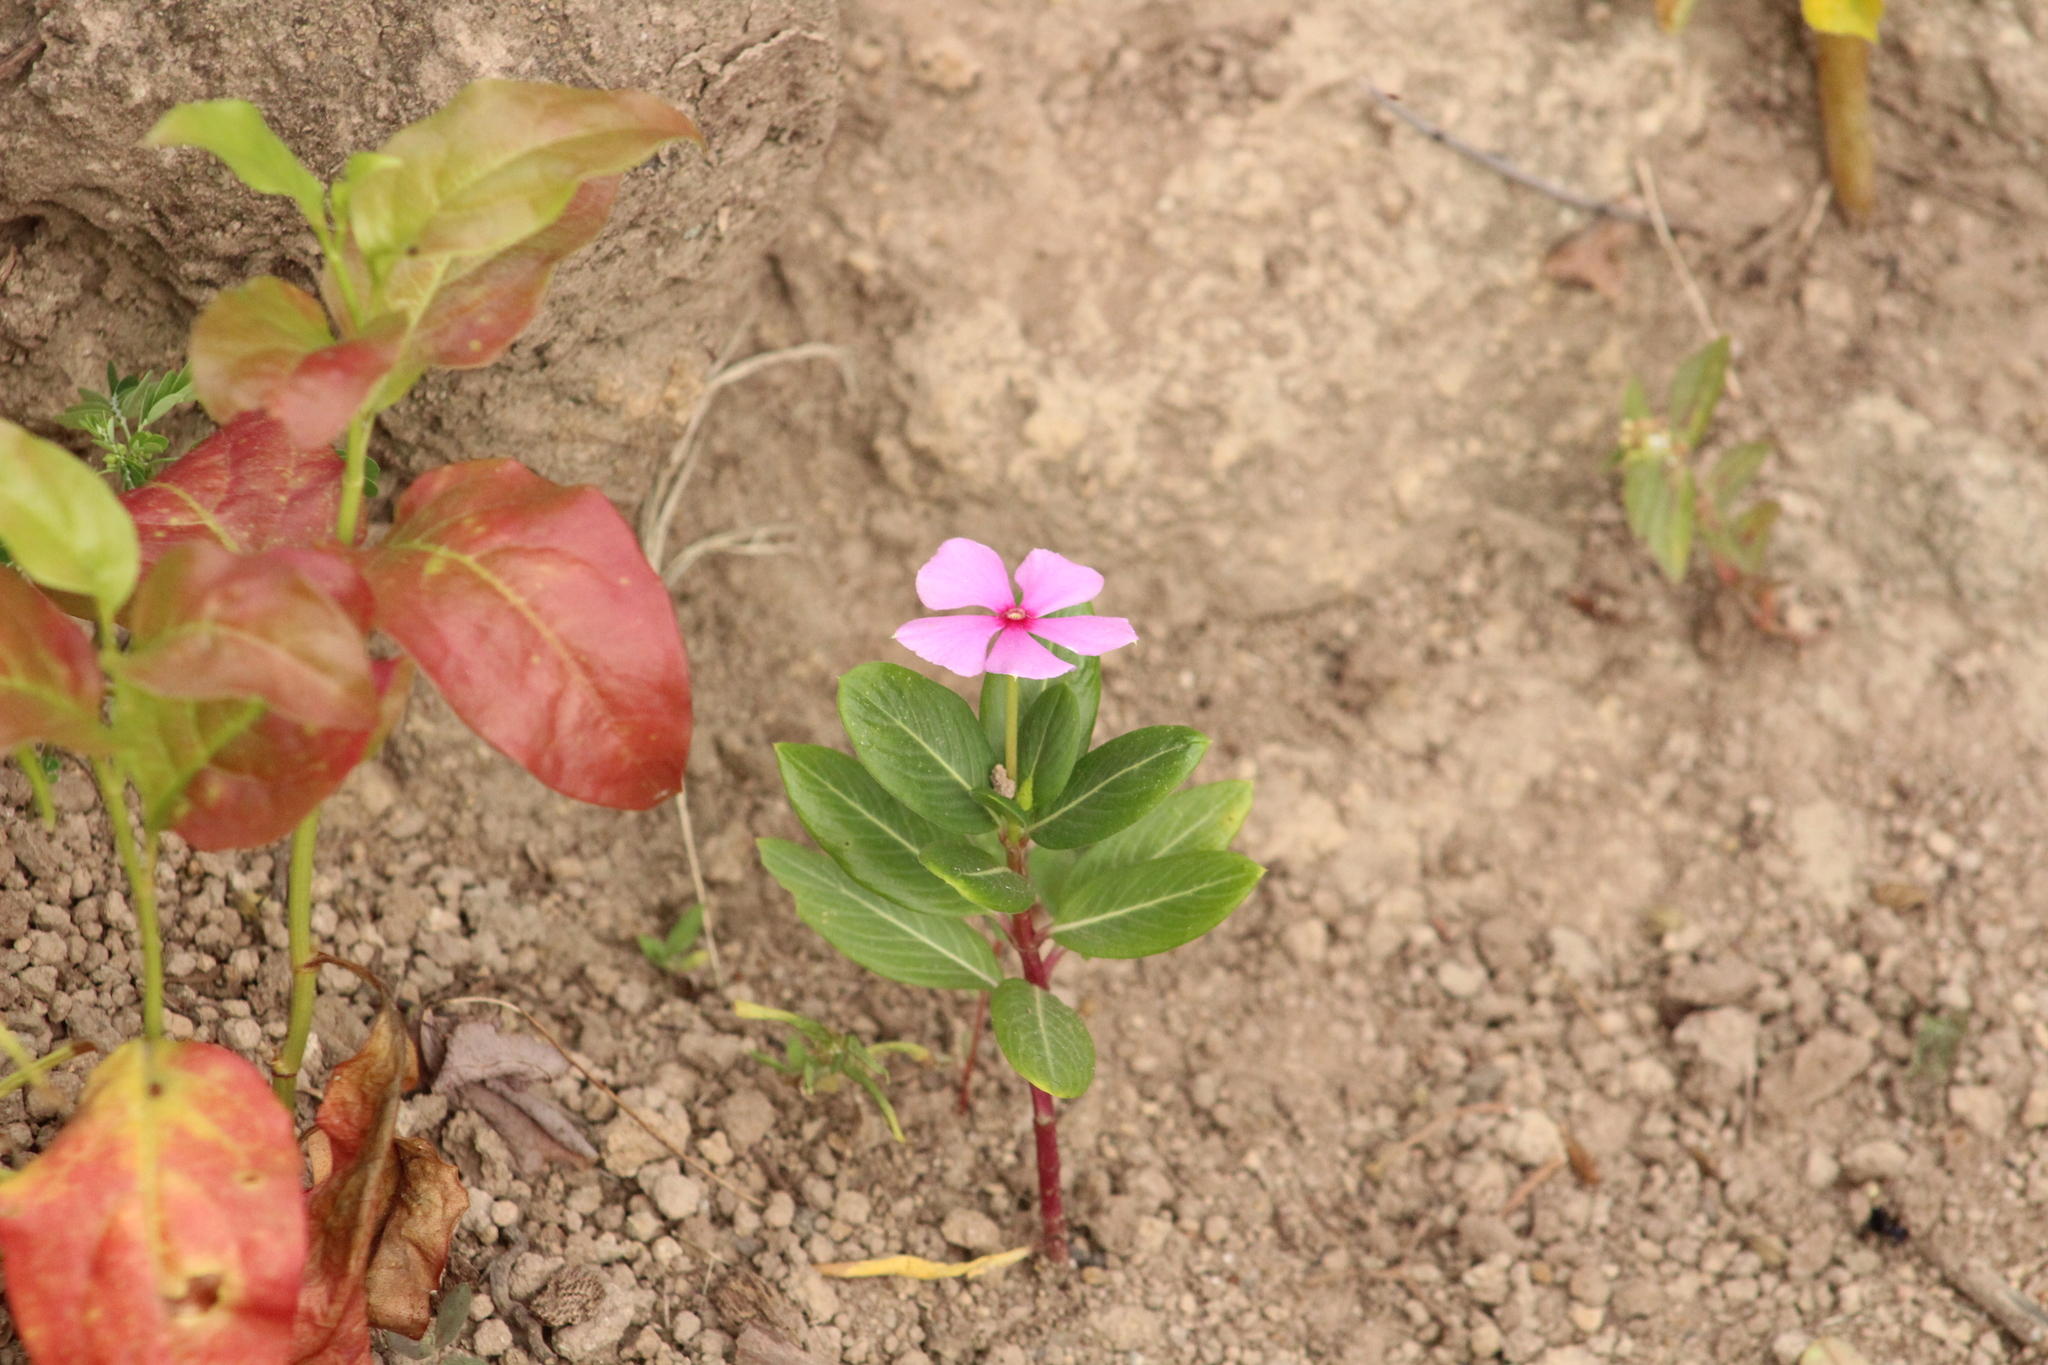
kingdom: Plantae
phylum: Tracheophyta
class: Magnoliopsida
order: Gentianales
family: Apocynaceae
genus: Catharanthus
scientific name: Catharanthus roseus
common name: Madagascar periwinkle
